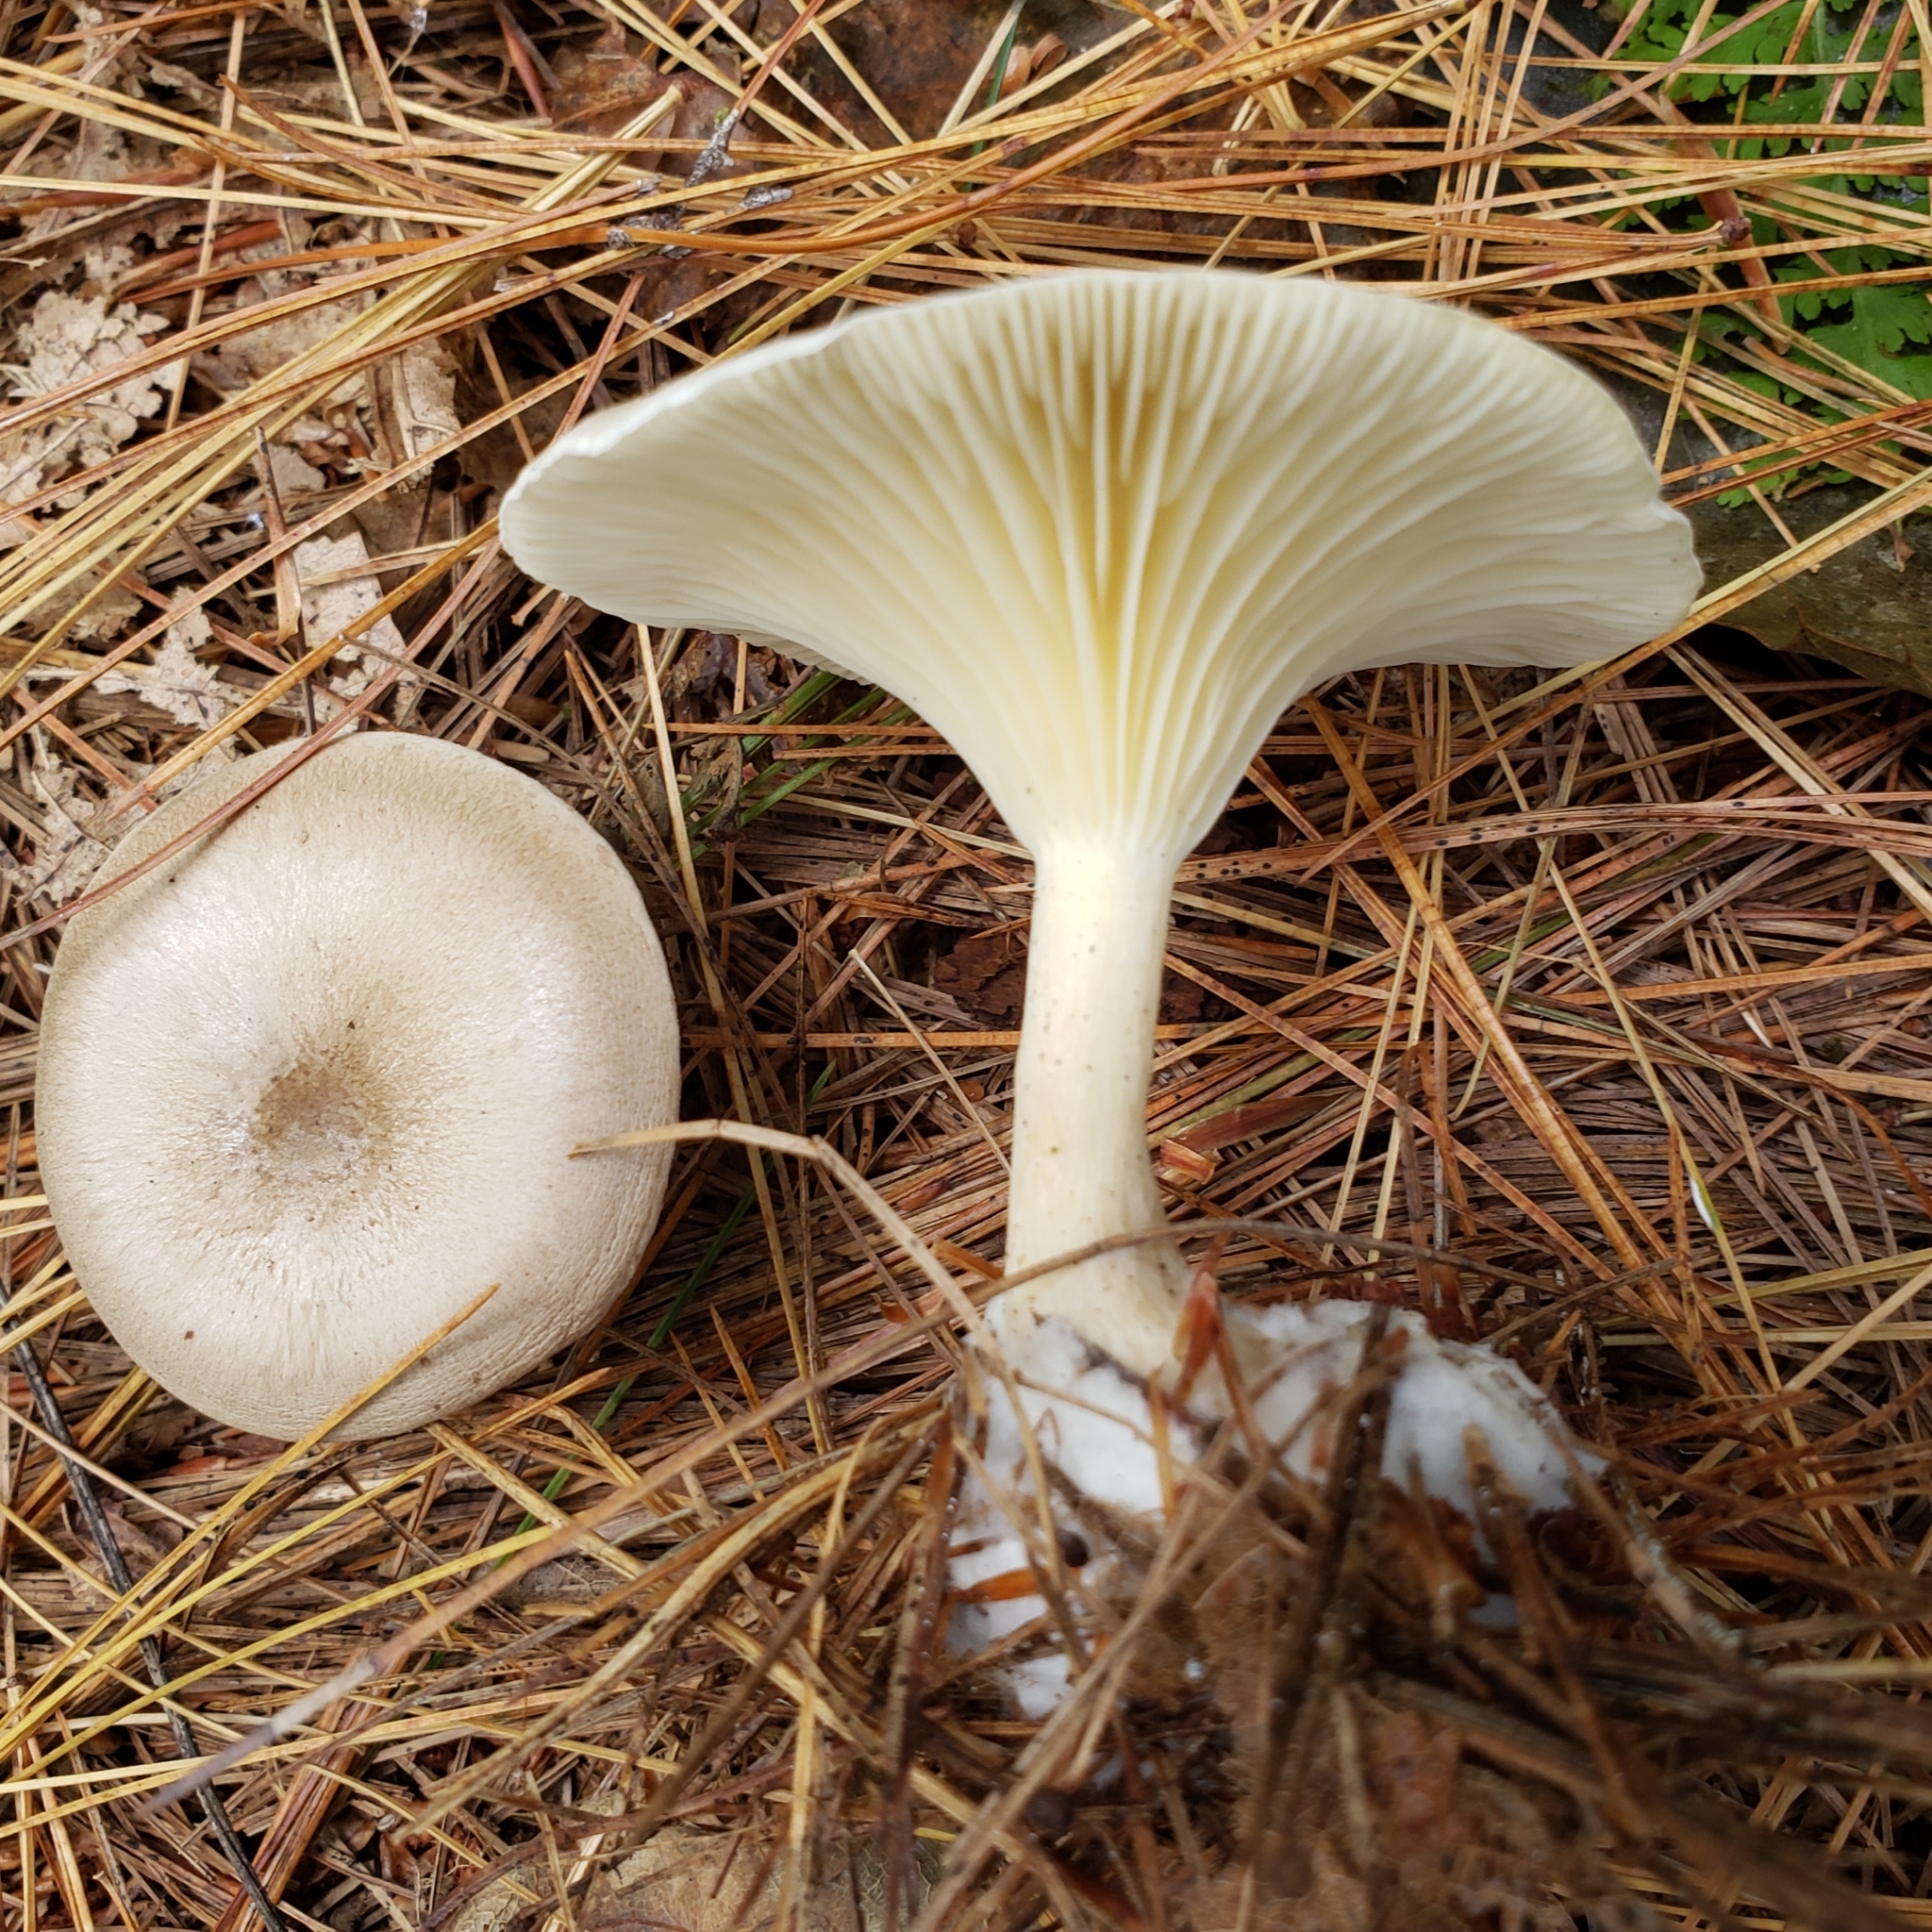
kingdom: Fungi
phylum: Basidiomycota
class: Agaricomycetes
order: Agaricales
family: Tricholomataceae
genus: Clitocybe
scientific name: Clitocybe subclavipes
